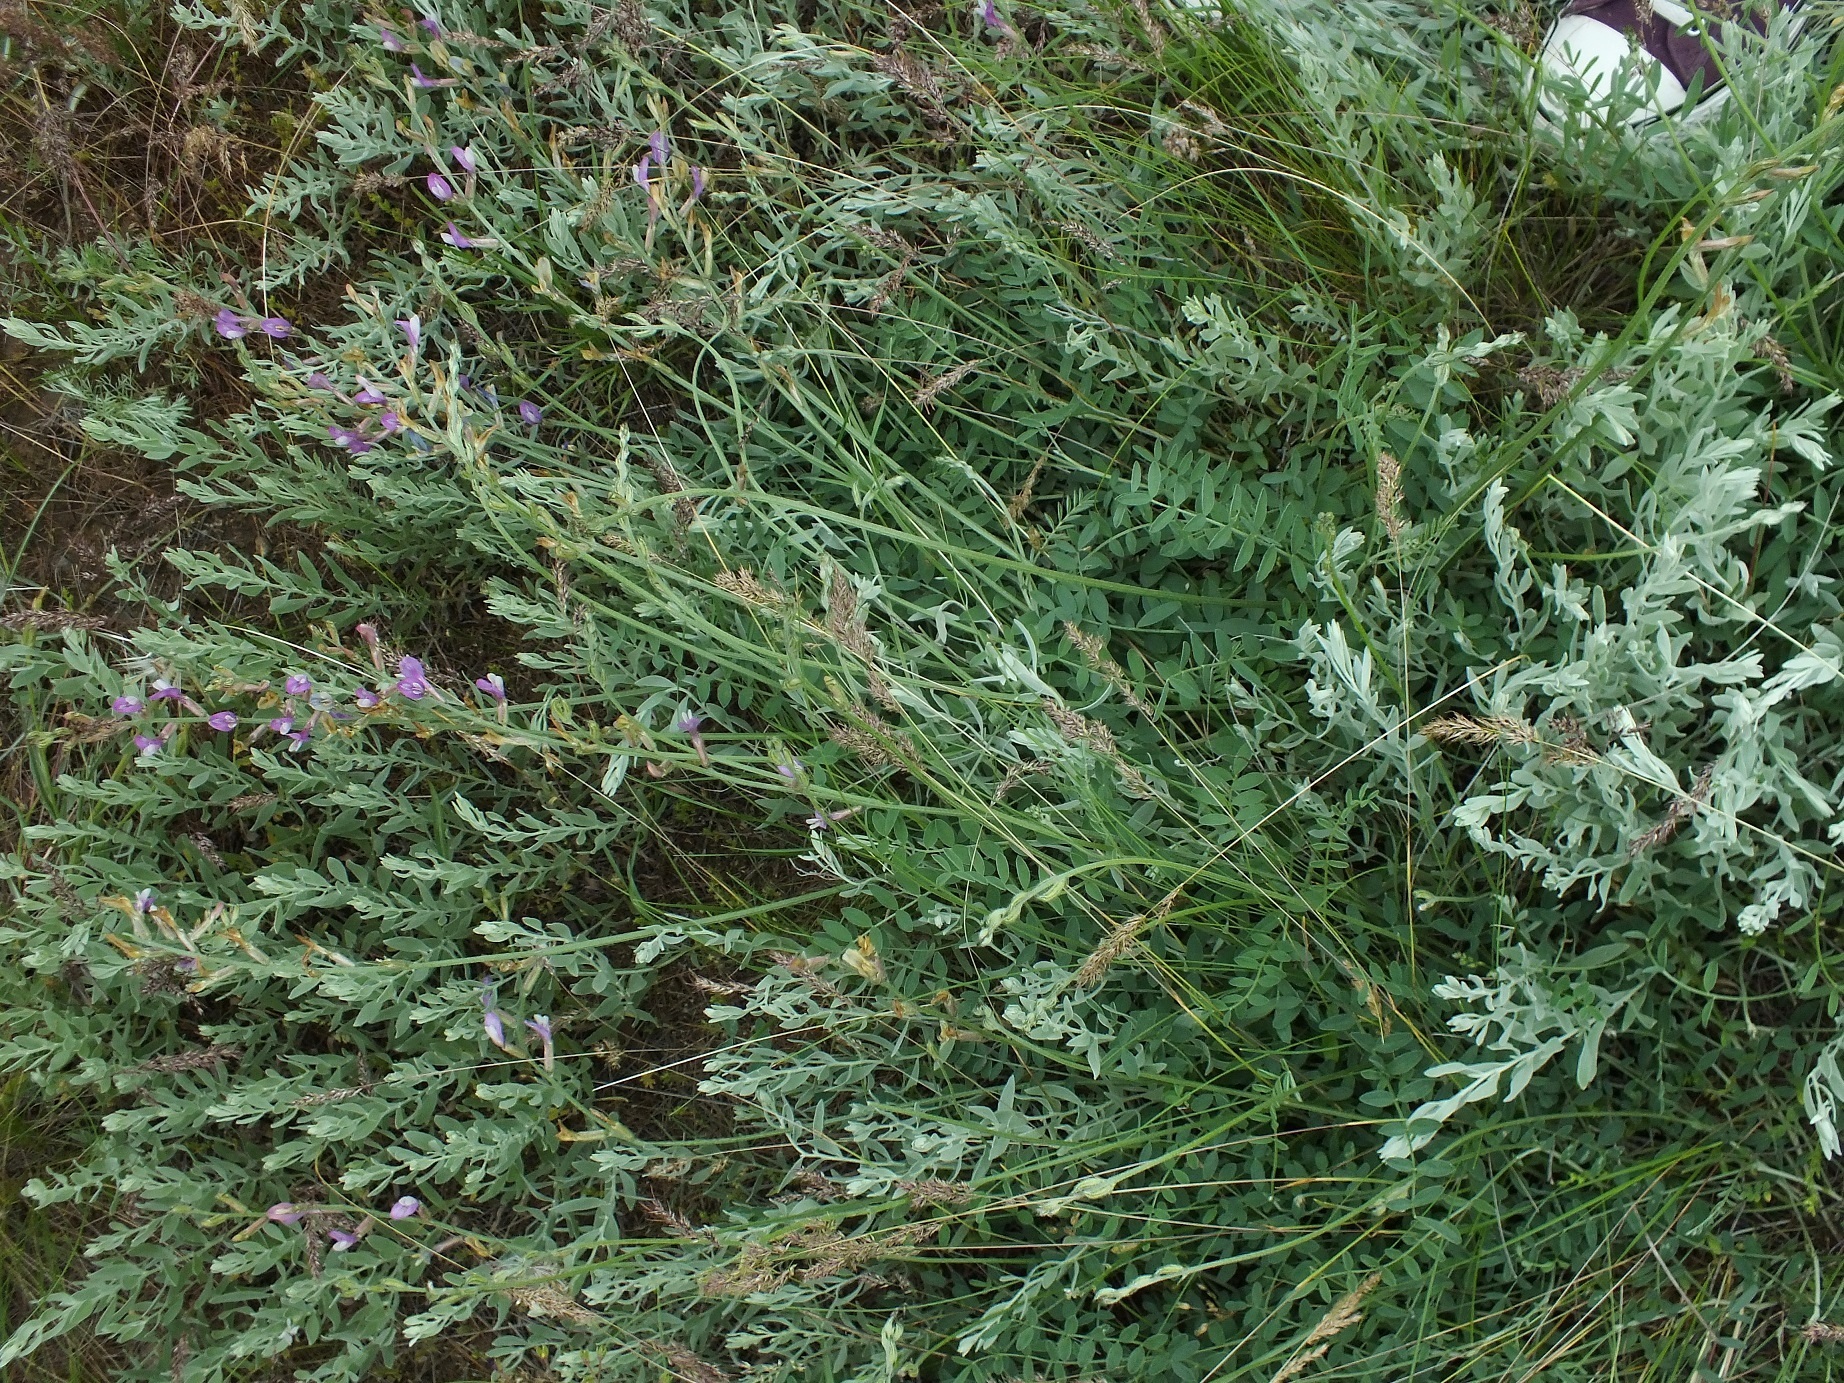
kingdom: Plantae
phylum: Tracheophyta
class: Magnoliopsida
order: Fabales
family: Fabaceae
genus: Astragalus
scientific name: Astragalus varius
